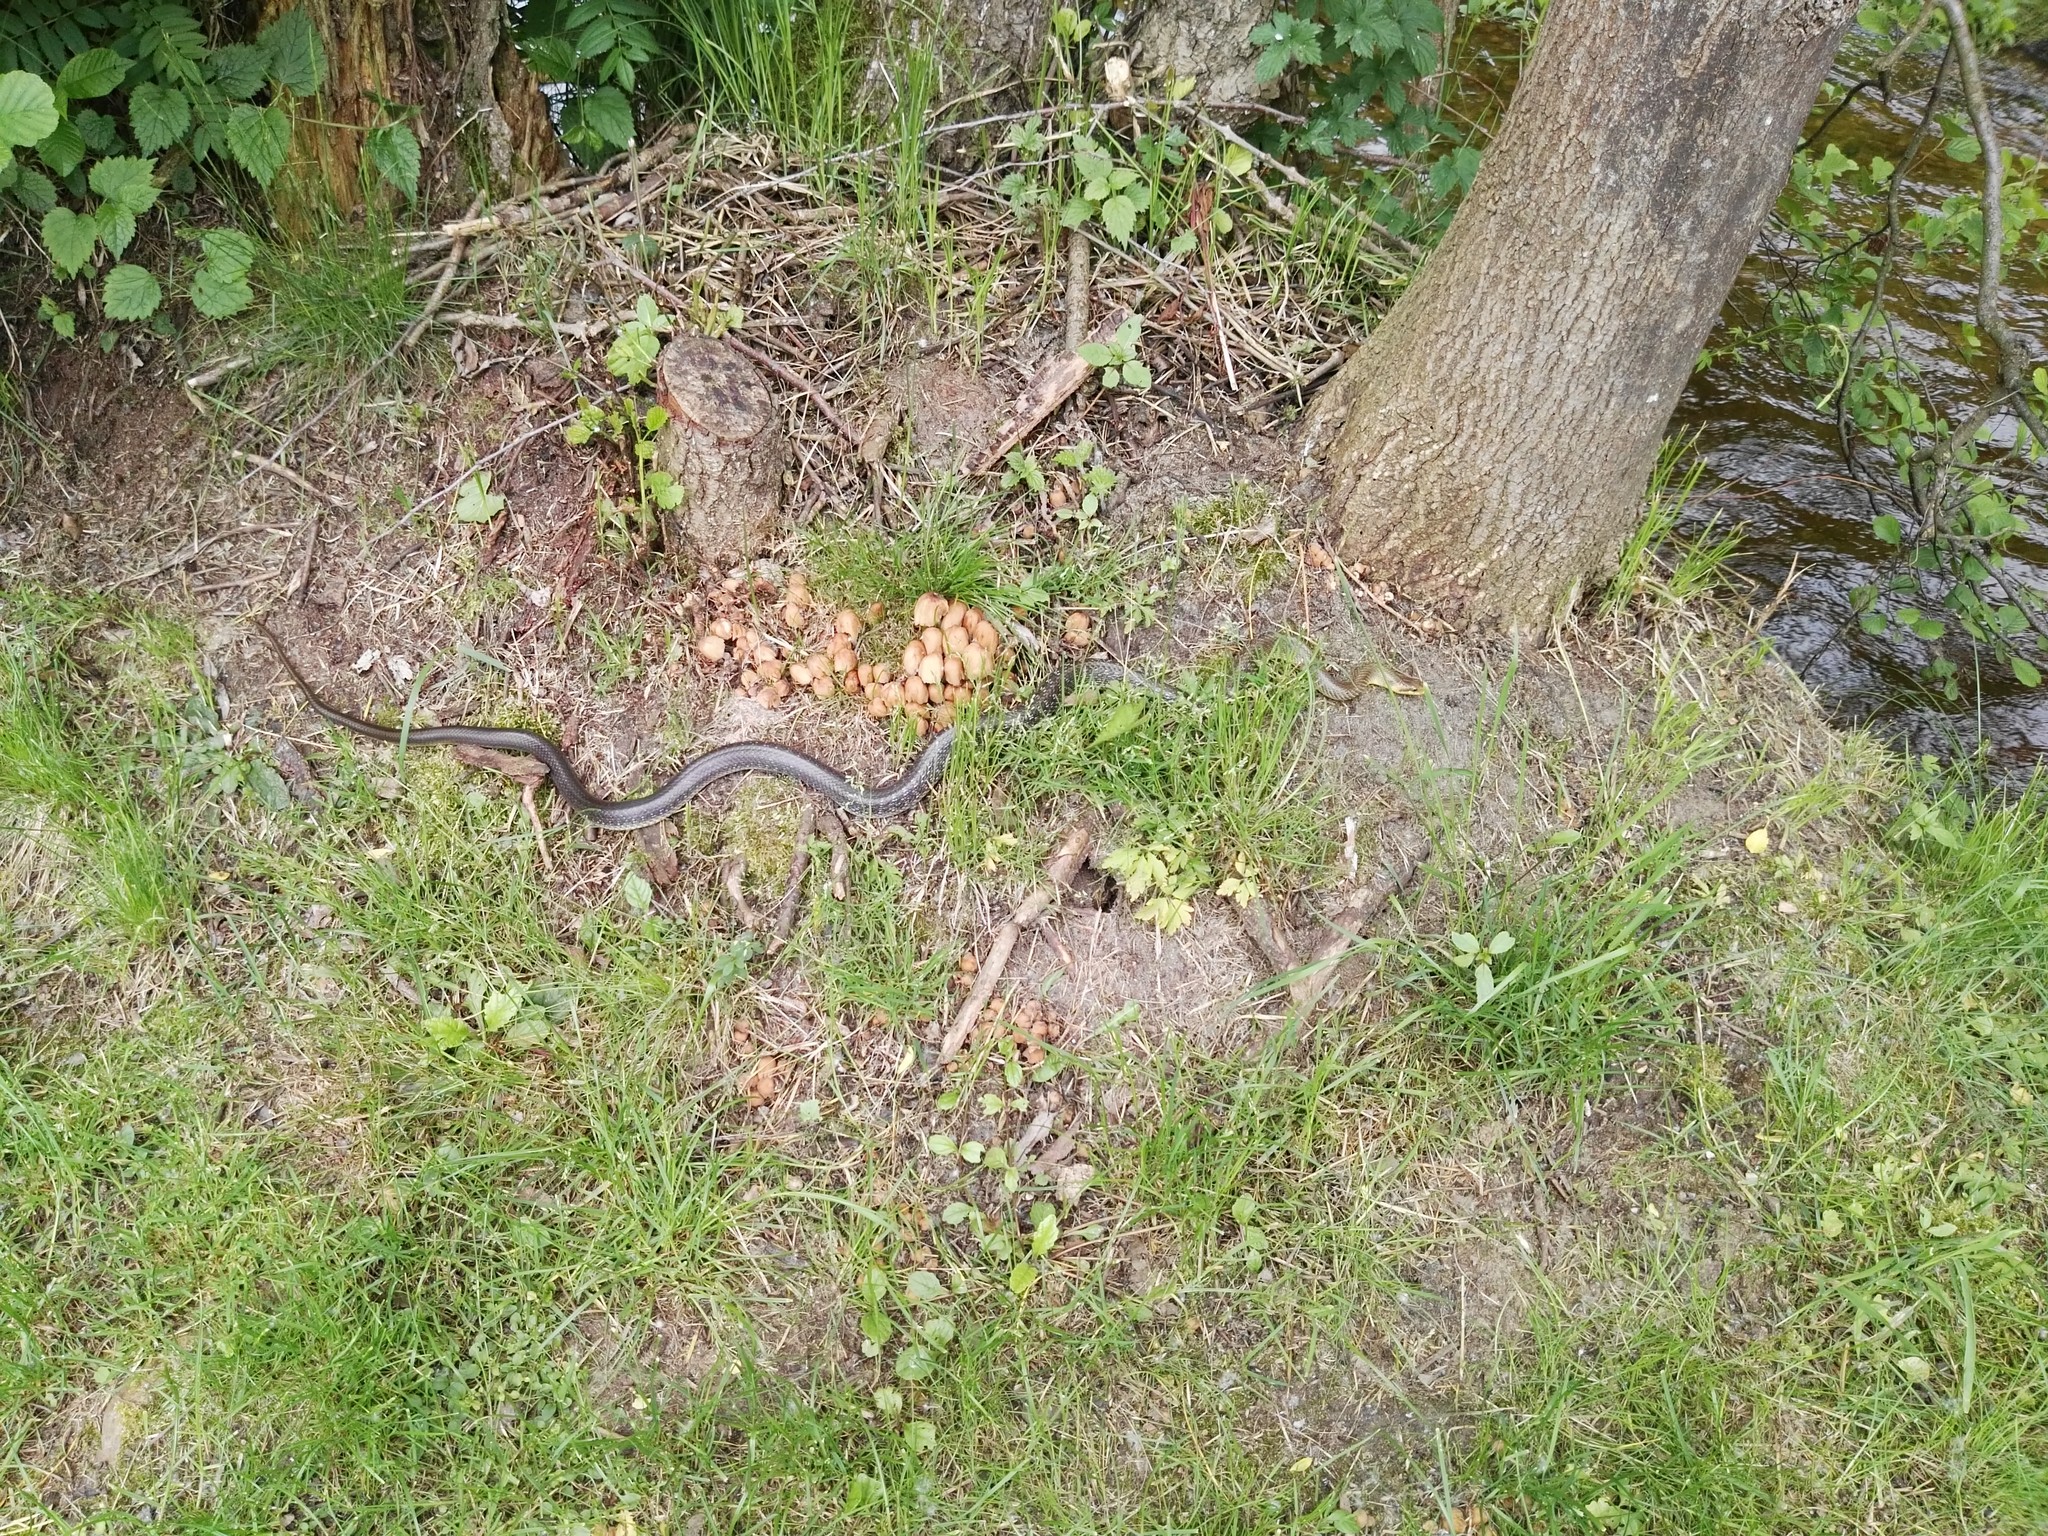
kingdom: Animalia
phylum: Chordata
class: Squamata
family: Colubridae
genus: Zamenis
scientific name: Zamenis longissimus
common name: Aesculapean snake
